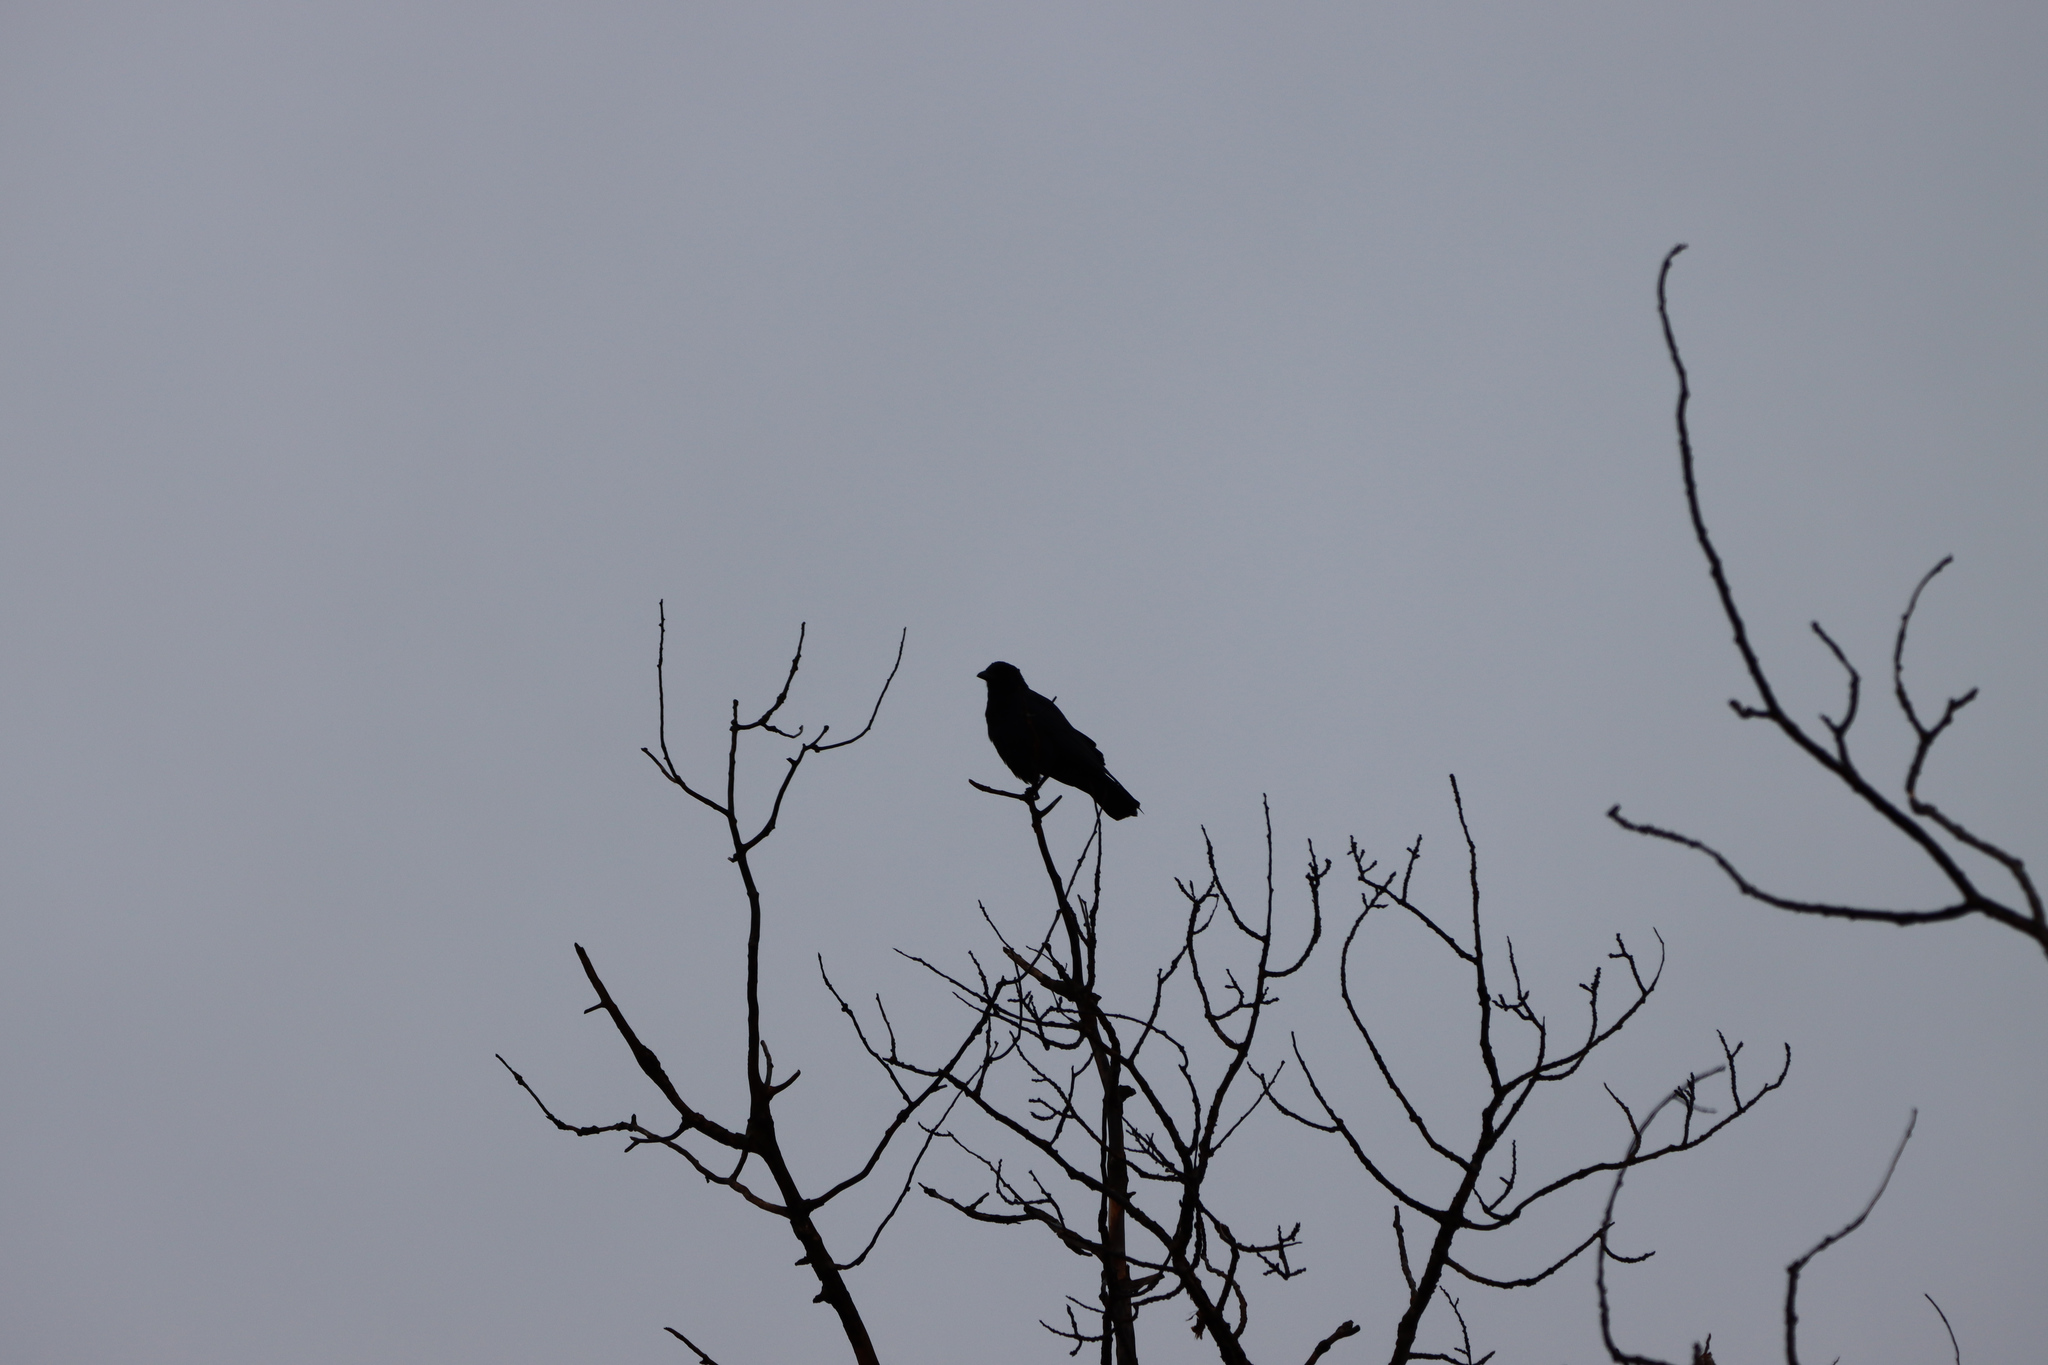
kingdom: Animalia
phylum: Chordata
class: Aves
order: Passeriformes
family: Corvidae
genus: Corvus
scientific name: Corvus brachyrhynchos
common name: American crow
